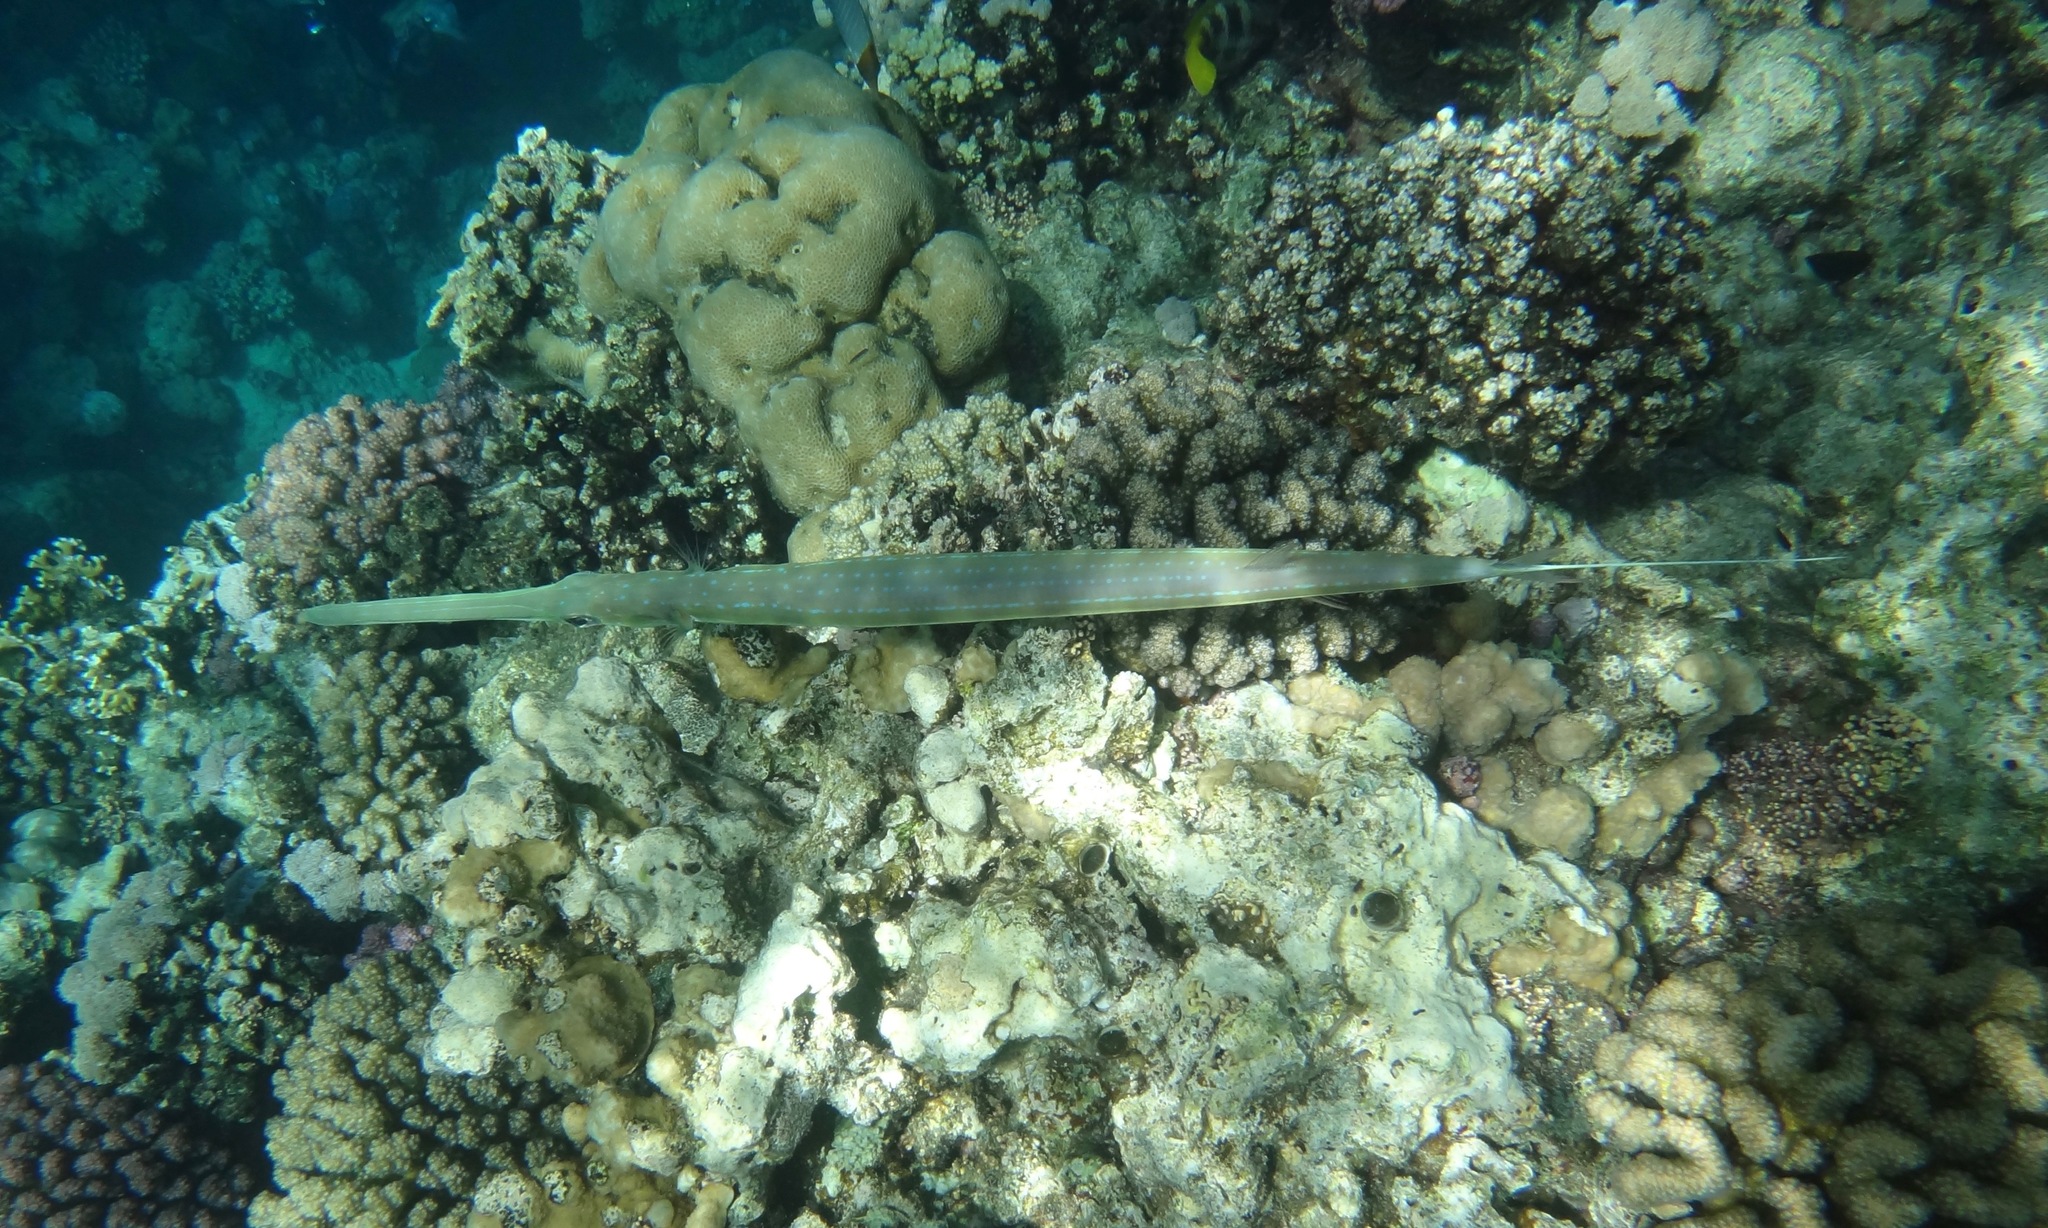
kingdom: Animalia
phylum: Chordata
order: Syngnathiformes
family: Fistulariidae
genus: Fistularia
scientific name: Fistularia commersonii
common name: Bluespotted cornetfish
